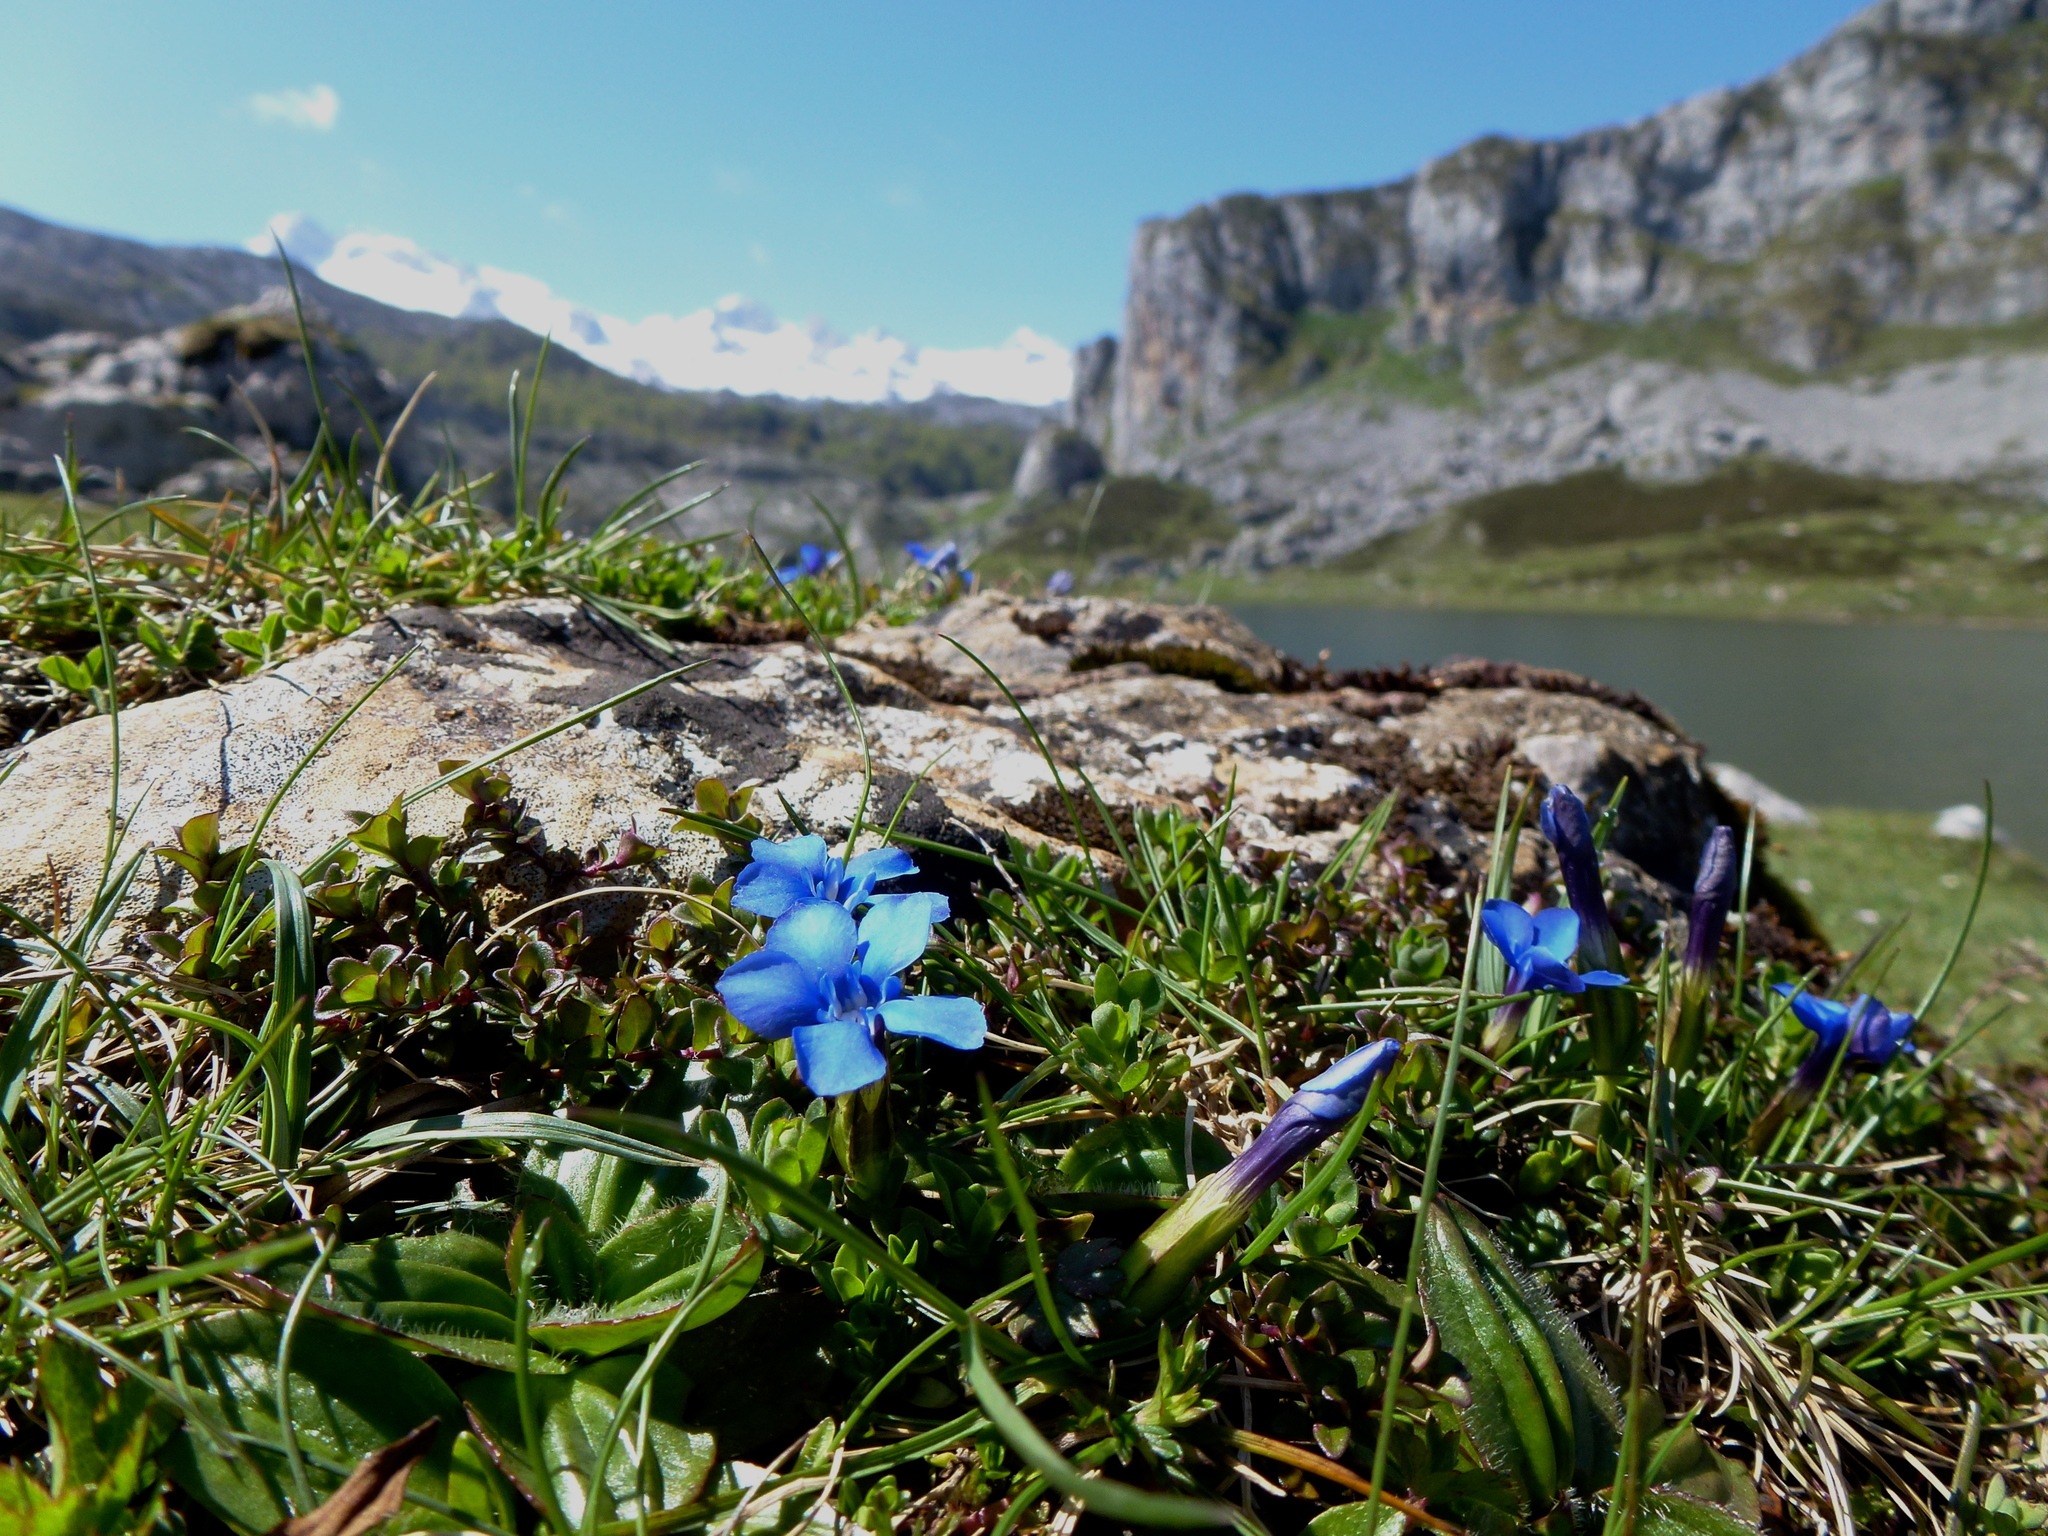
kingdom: Plantae
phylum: Tracheophyta
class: Magnoliopsida
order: Gentianales
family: Gentianaceae
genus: Gentiana
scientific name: Gentiana verna
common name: Spring gentian
